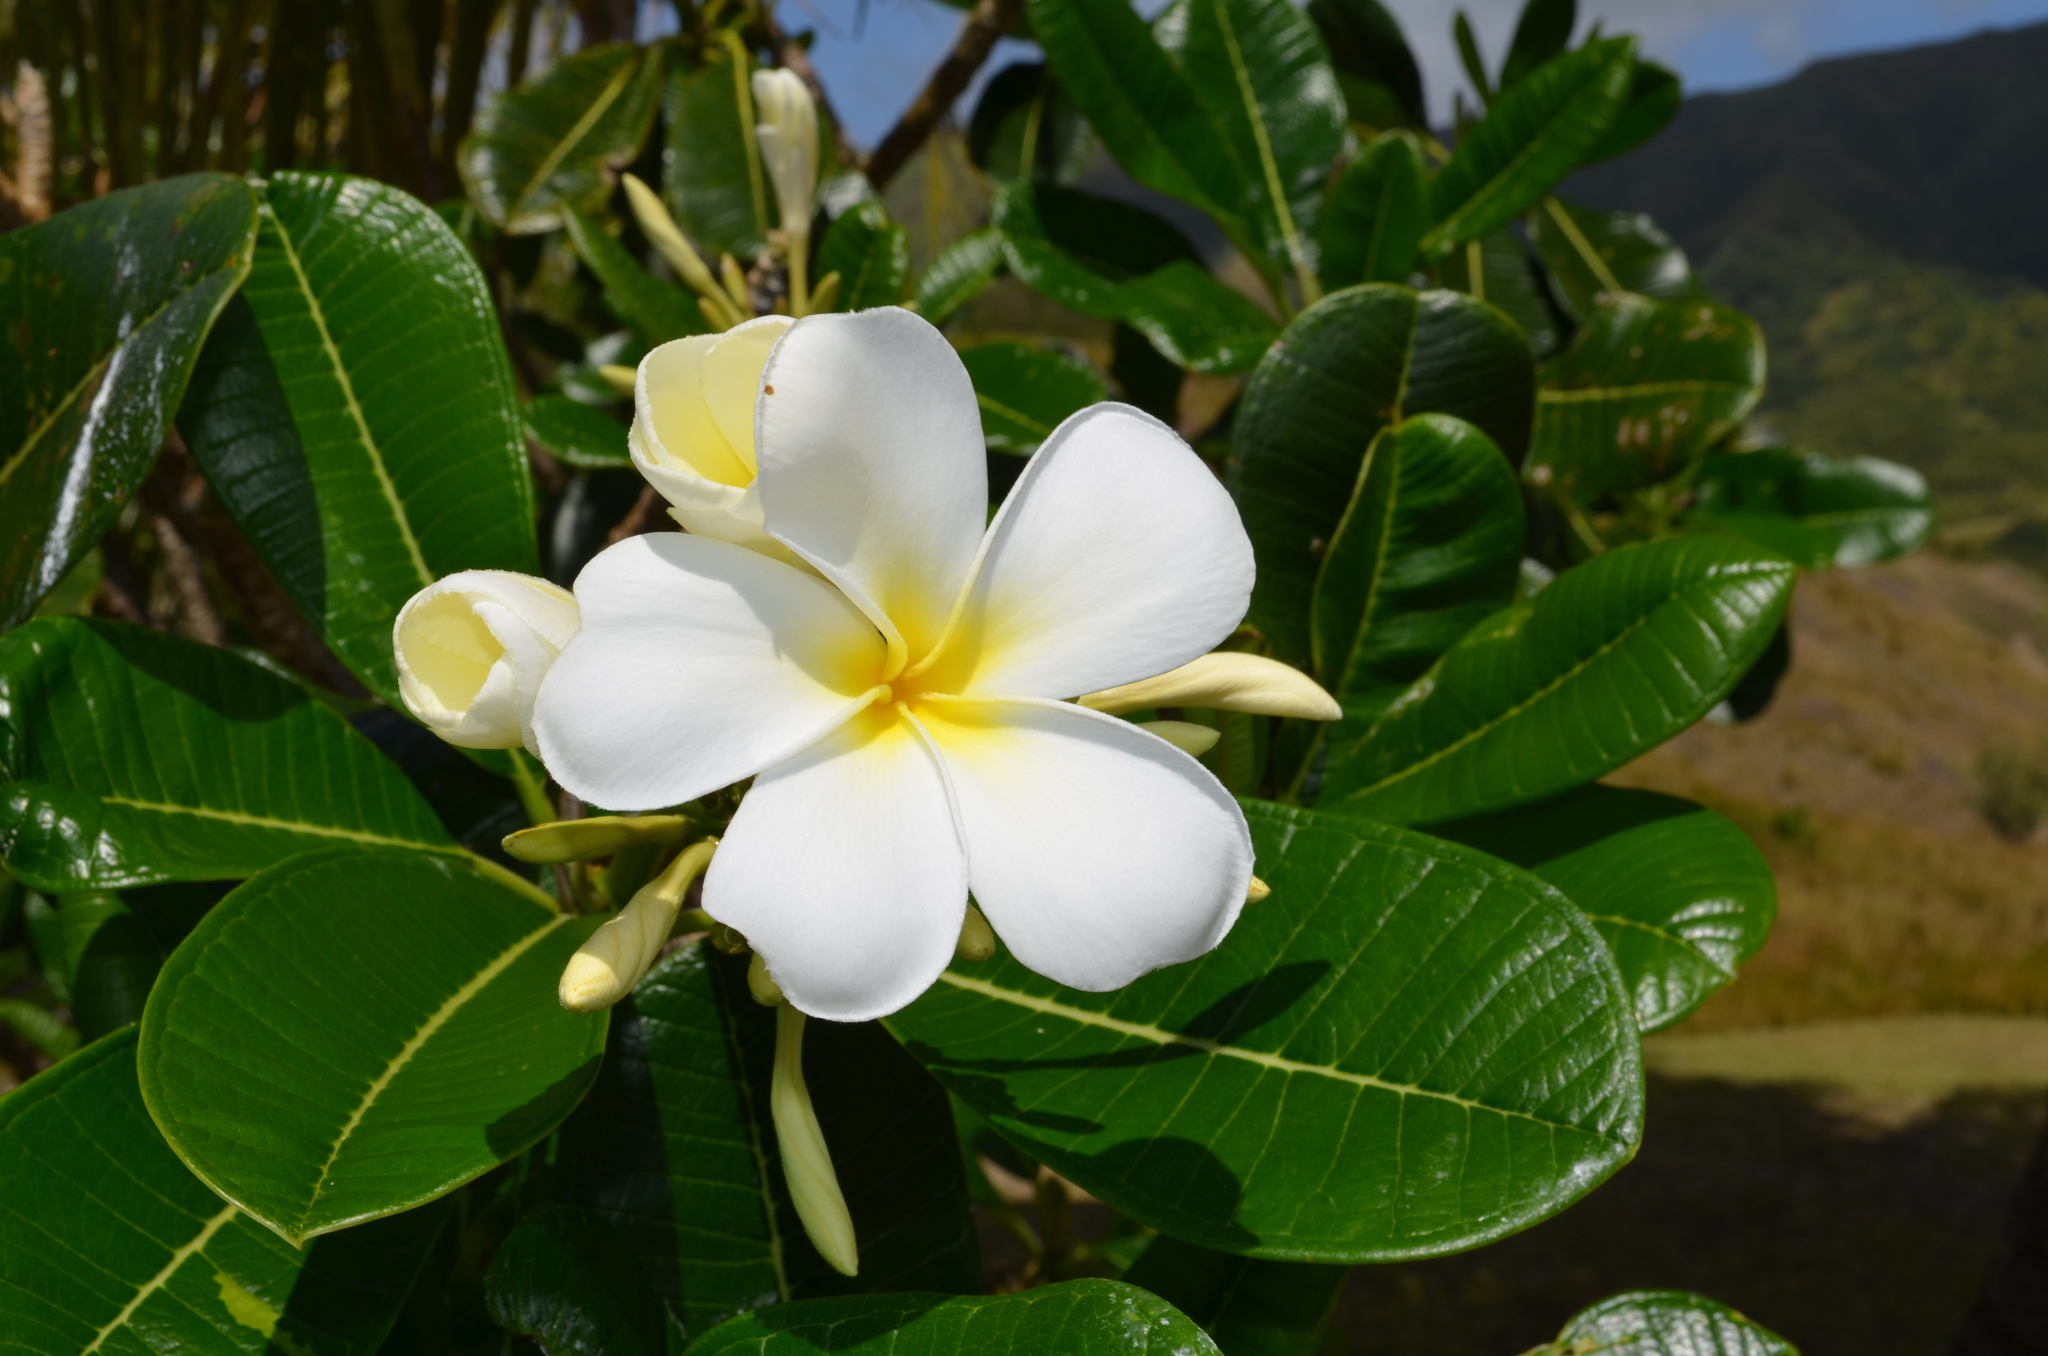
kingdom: Plantae
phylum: Tracheophyta
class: Magnoliopsida
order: Gentianales
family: Apocynaceae
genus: Plumeria
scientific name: Plumeria obtusa
